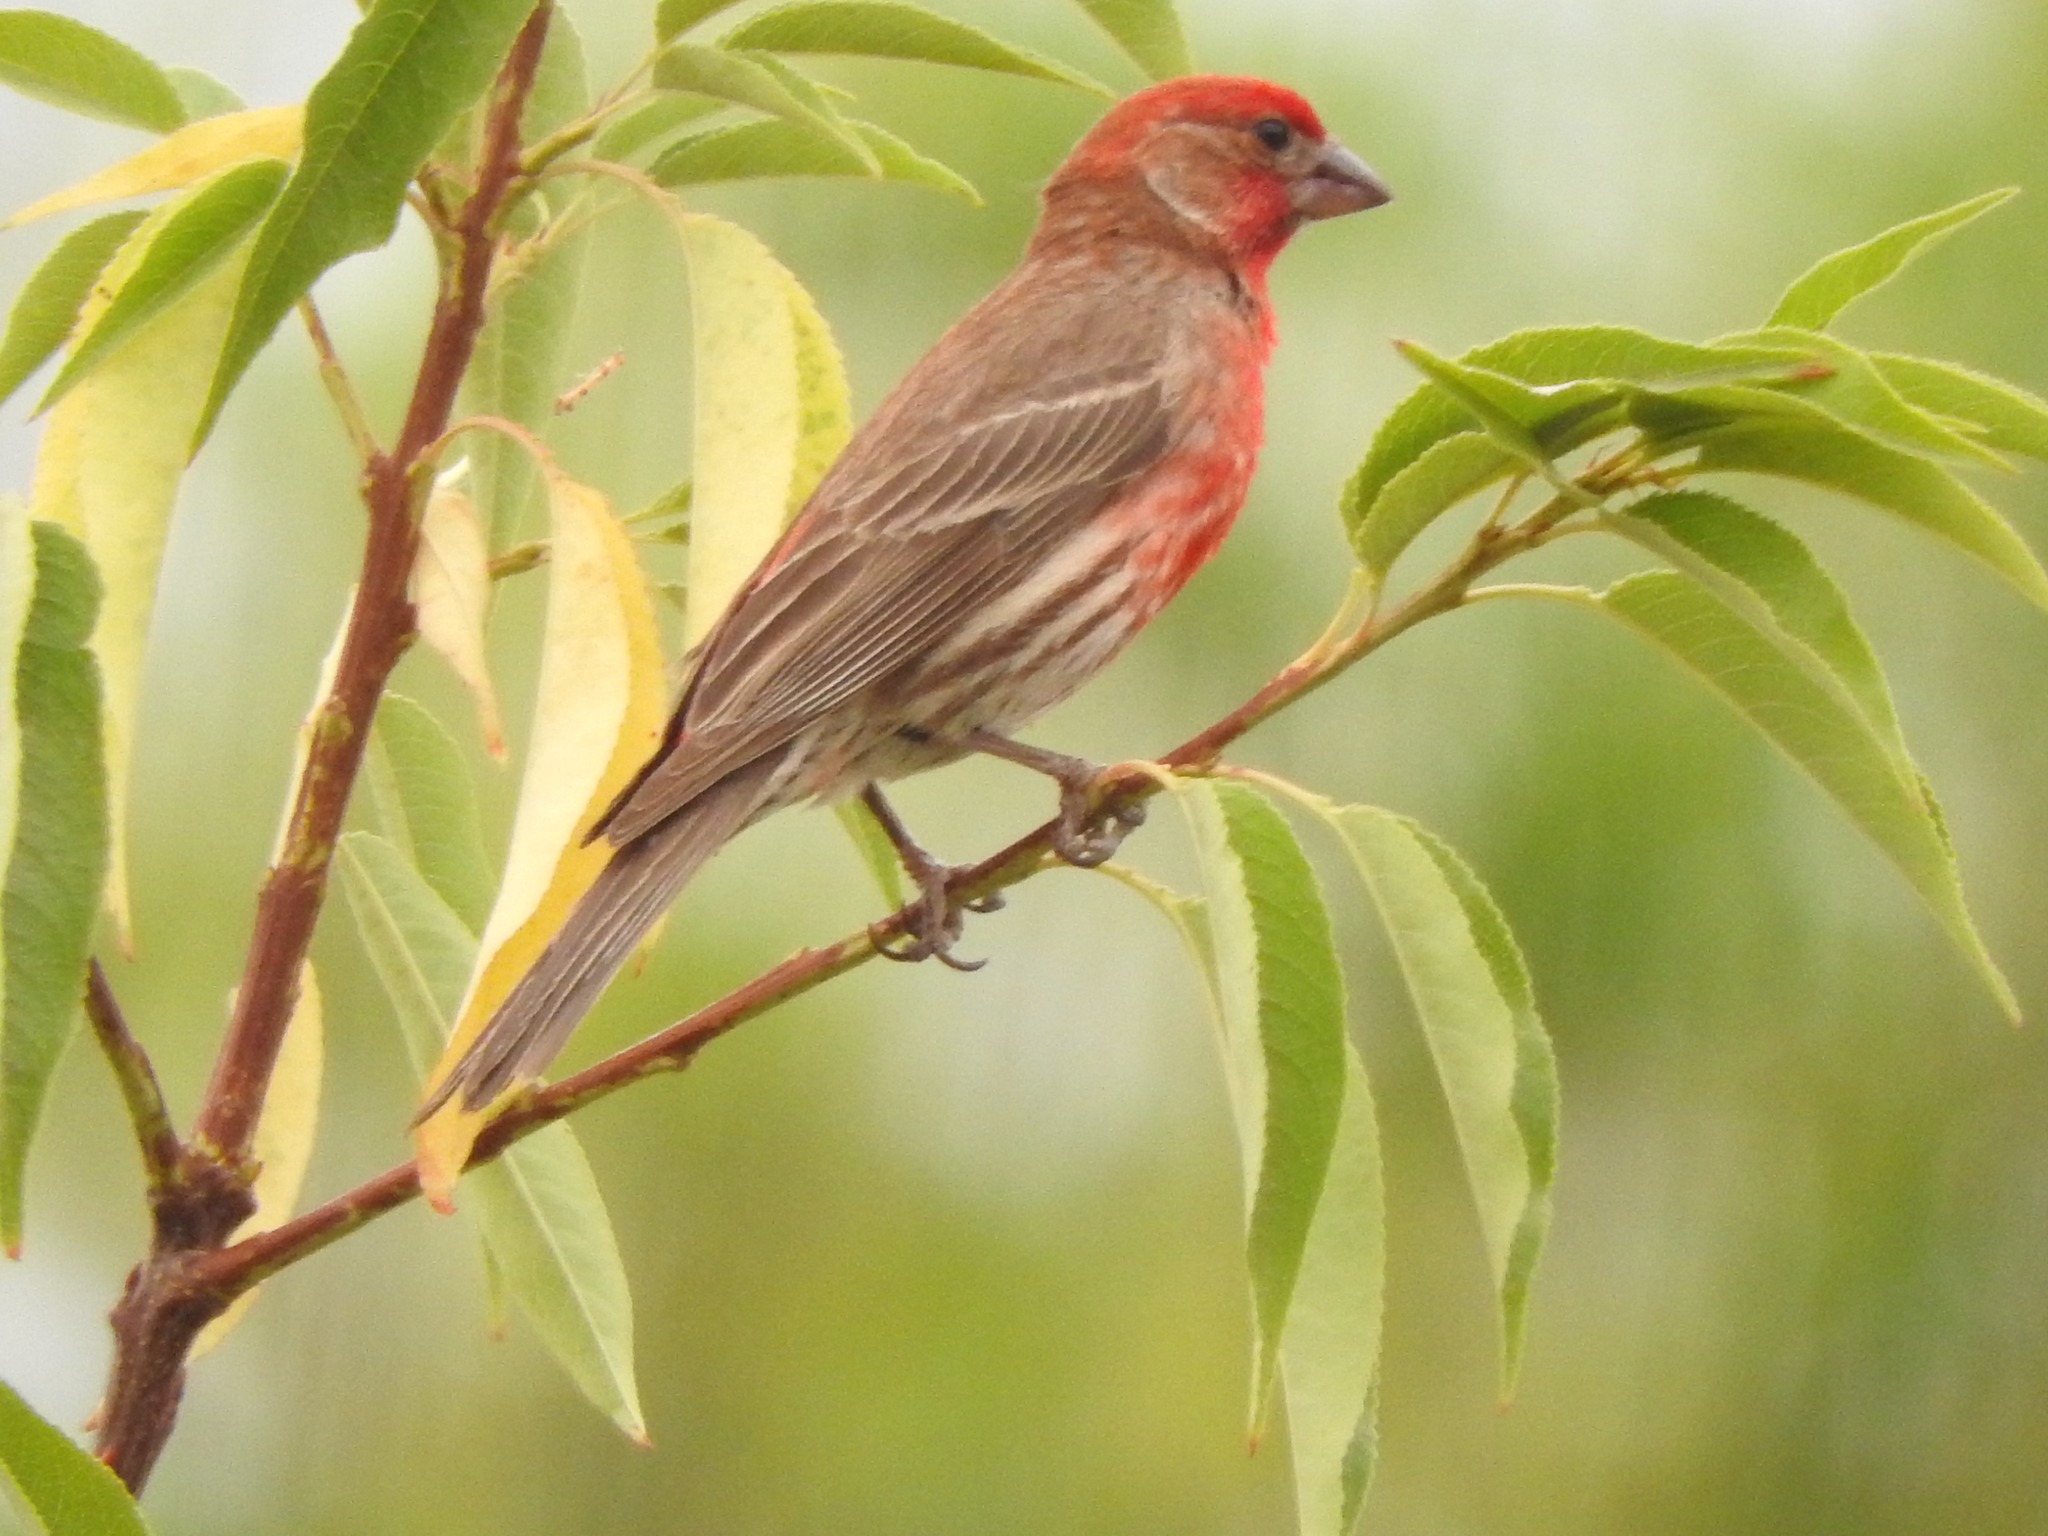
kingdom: Animalia
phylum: Chordata
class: Aves
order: Passeriformes
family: Fringillidae
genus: Haemorhous
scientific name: Haemorhous mexicanus
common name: House finch
